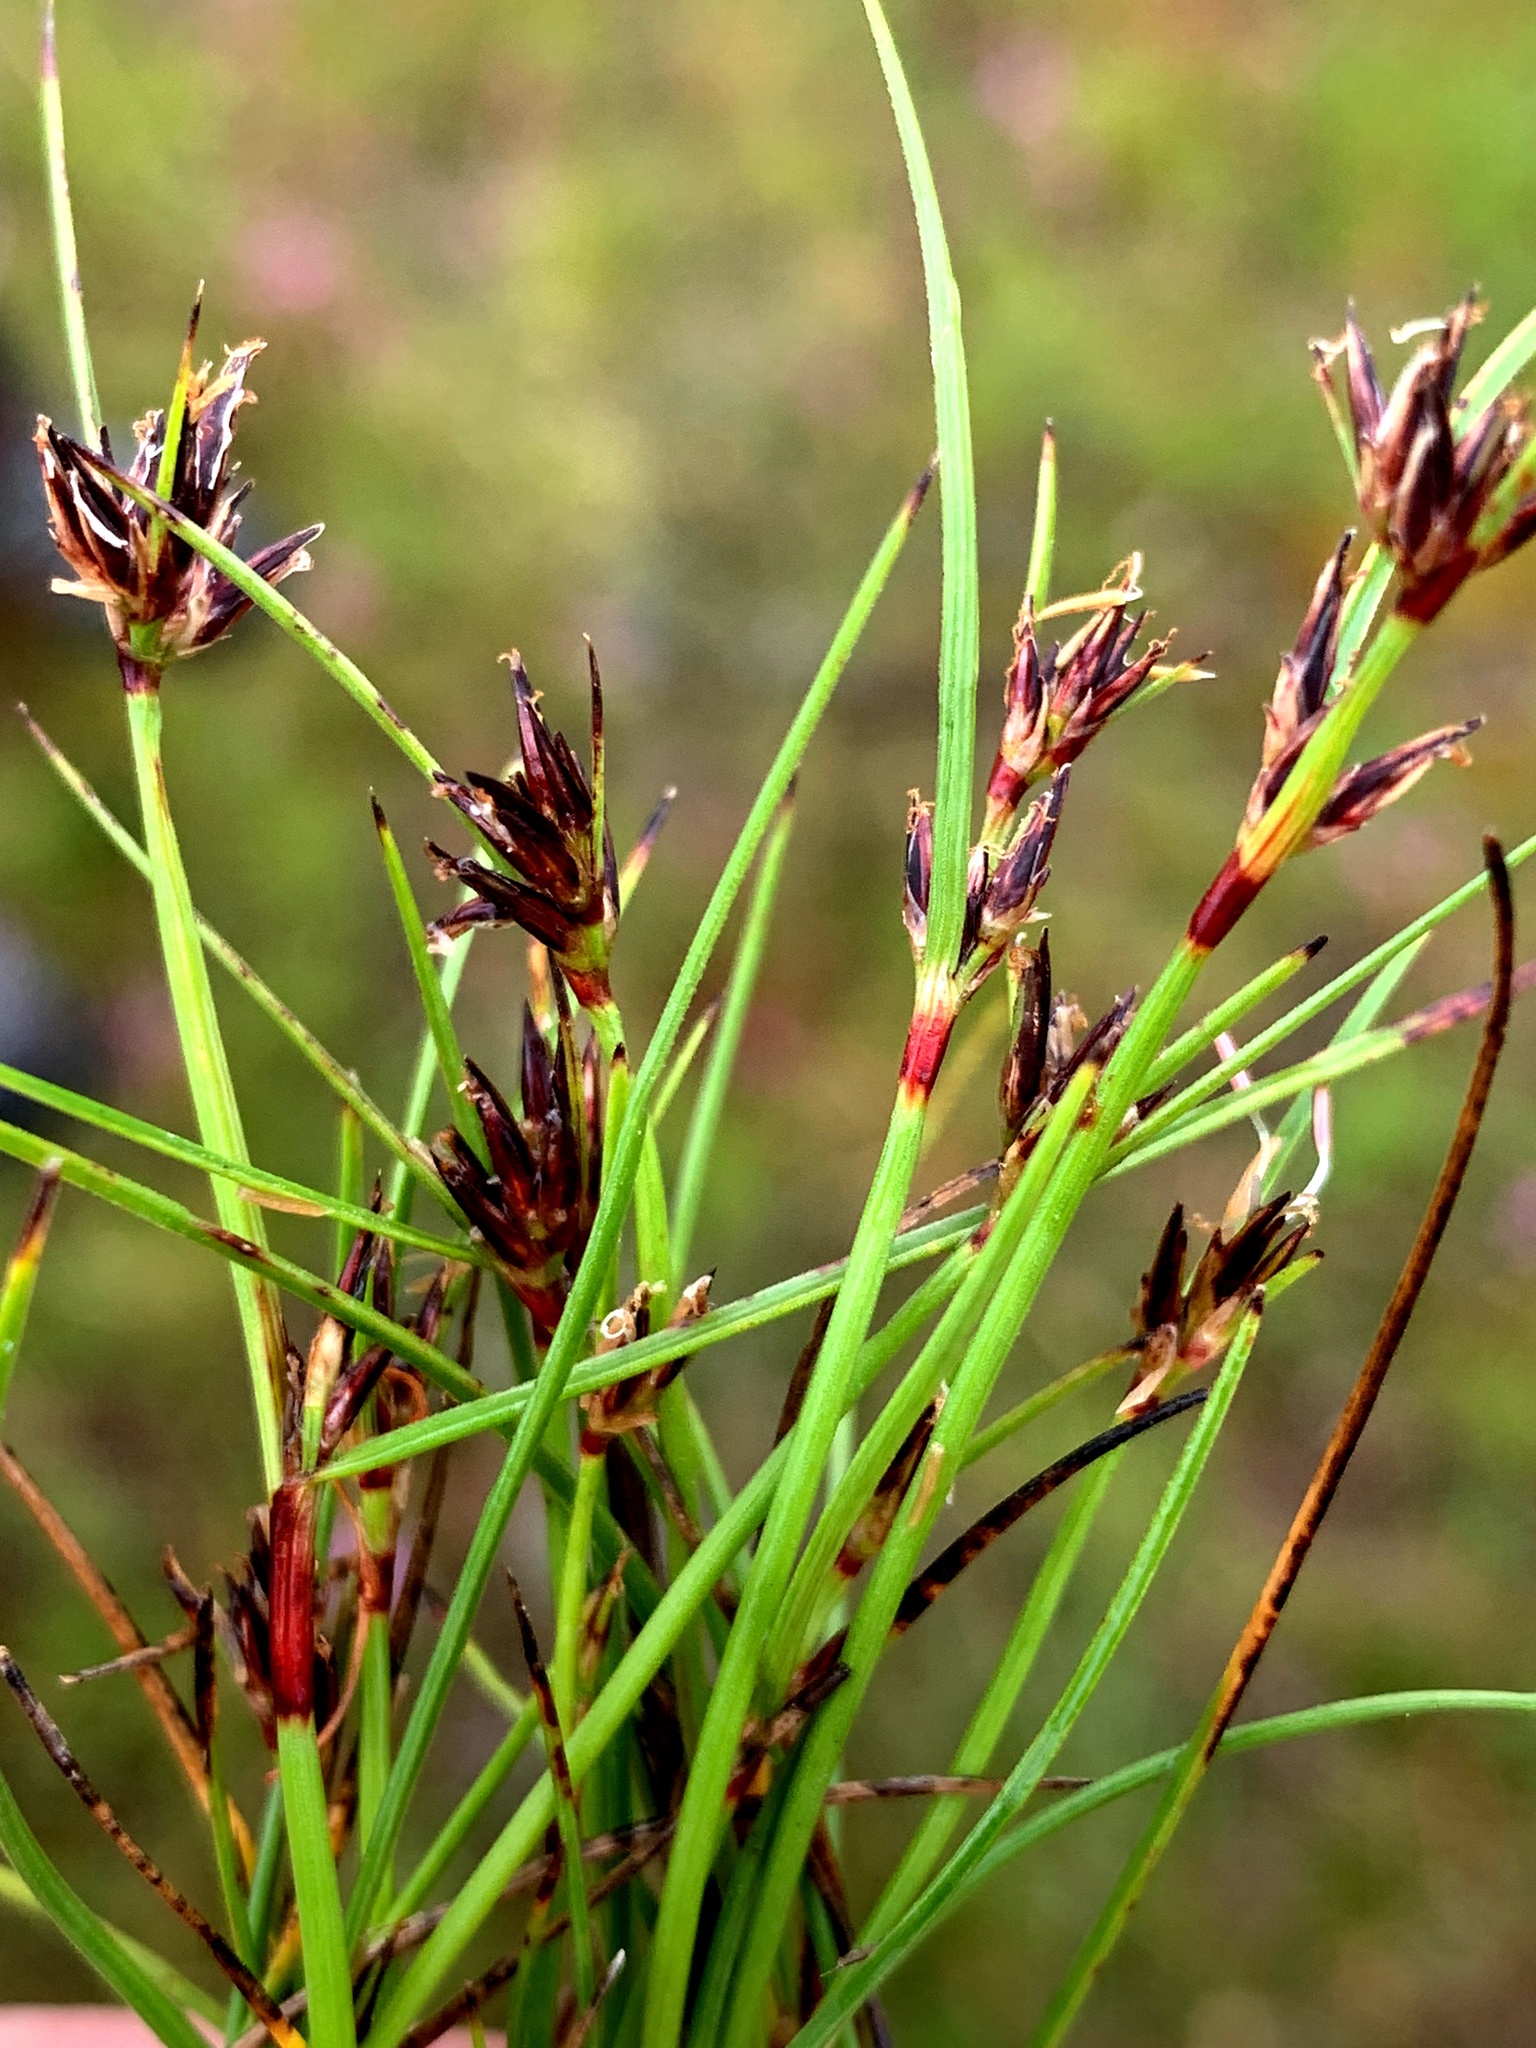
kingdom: Plantae
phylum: Tracheophyta
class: Liliopsida
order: Poales
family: Cyperaceae
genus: Schoenus
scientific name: Schoenus apogon
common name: Smooth bogrush
